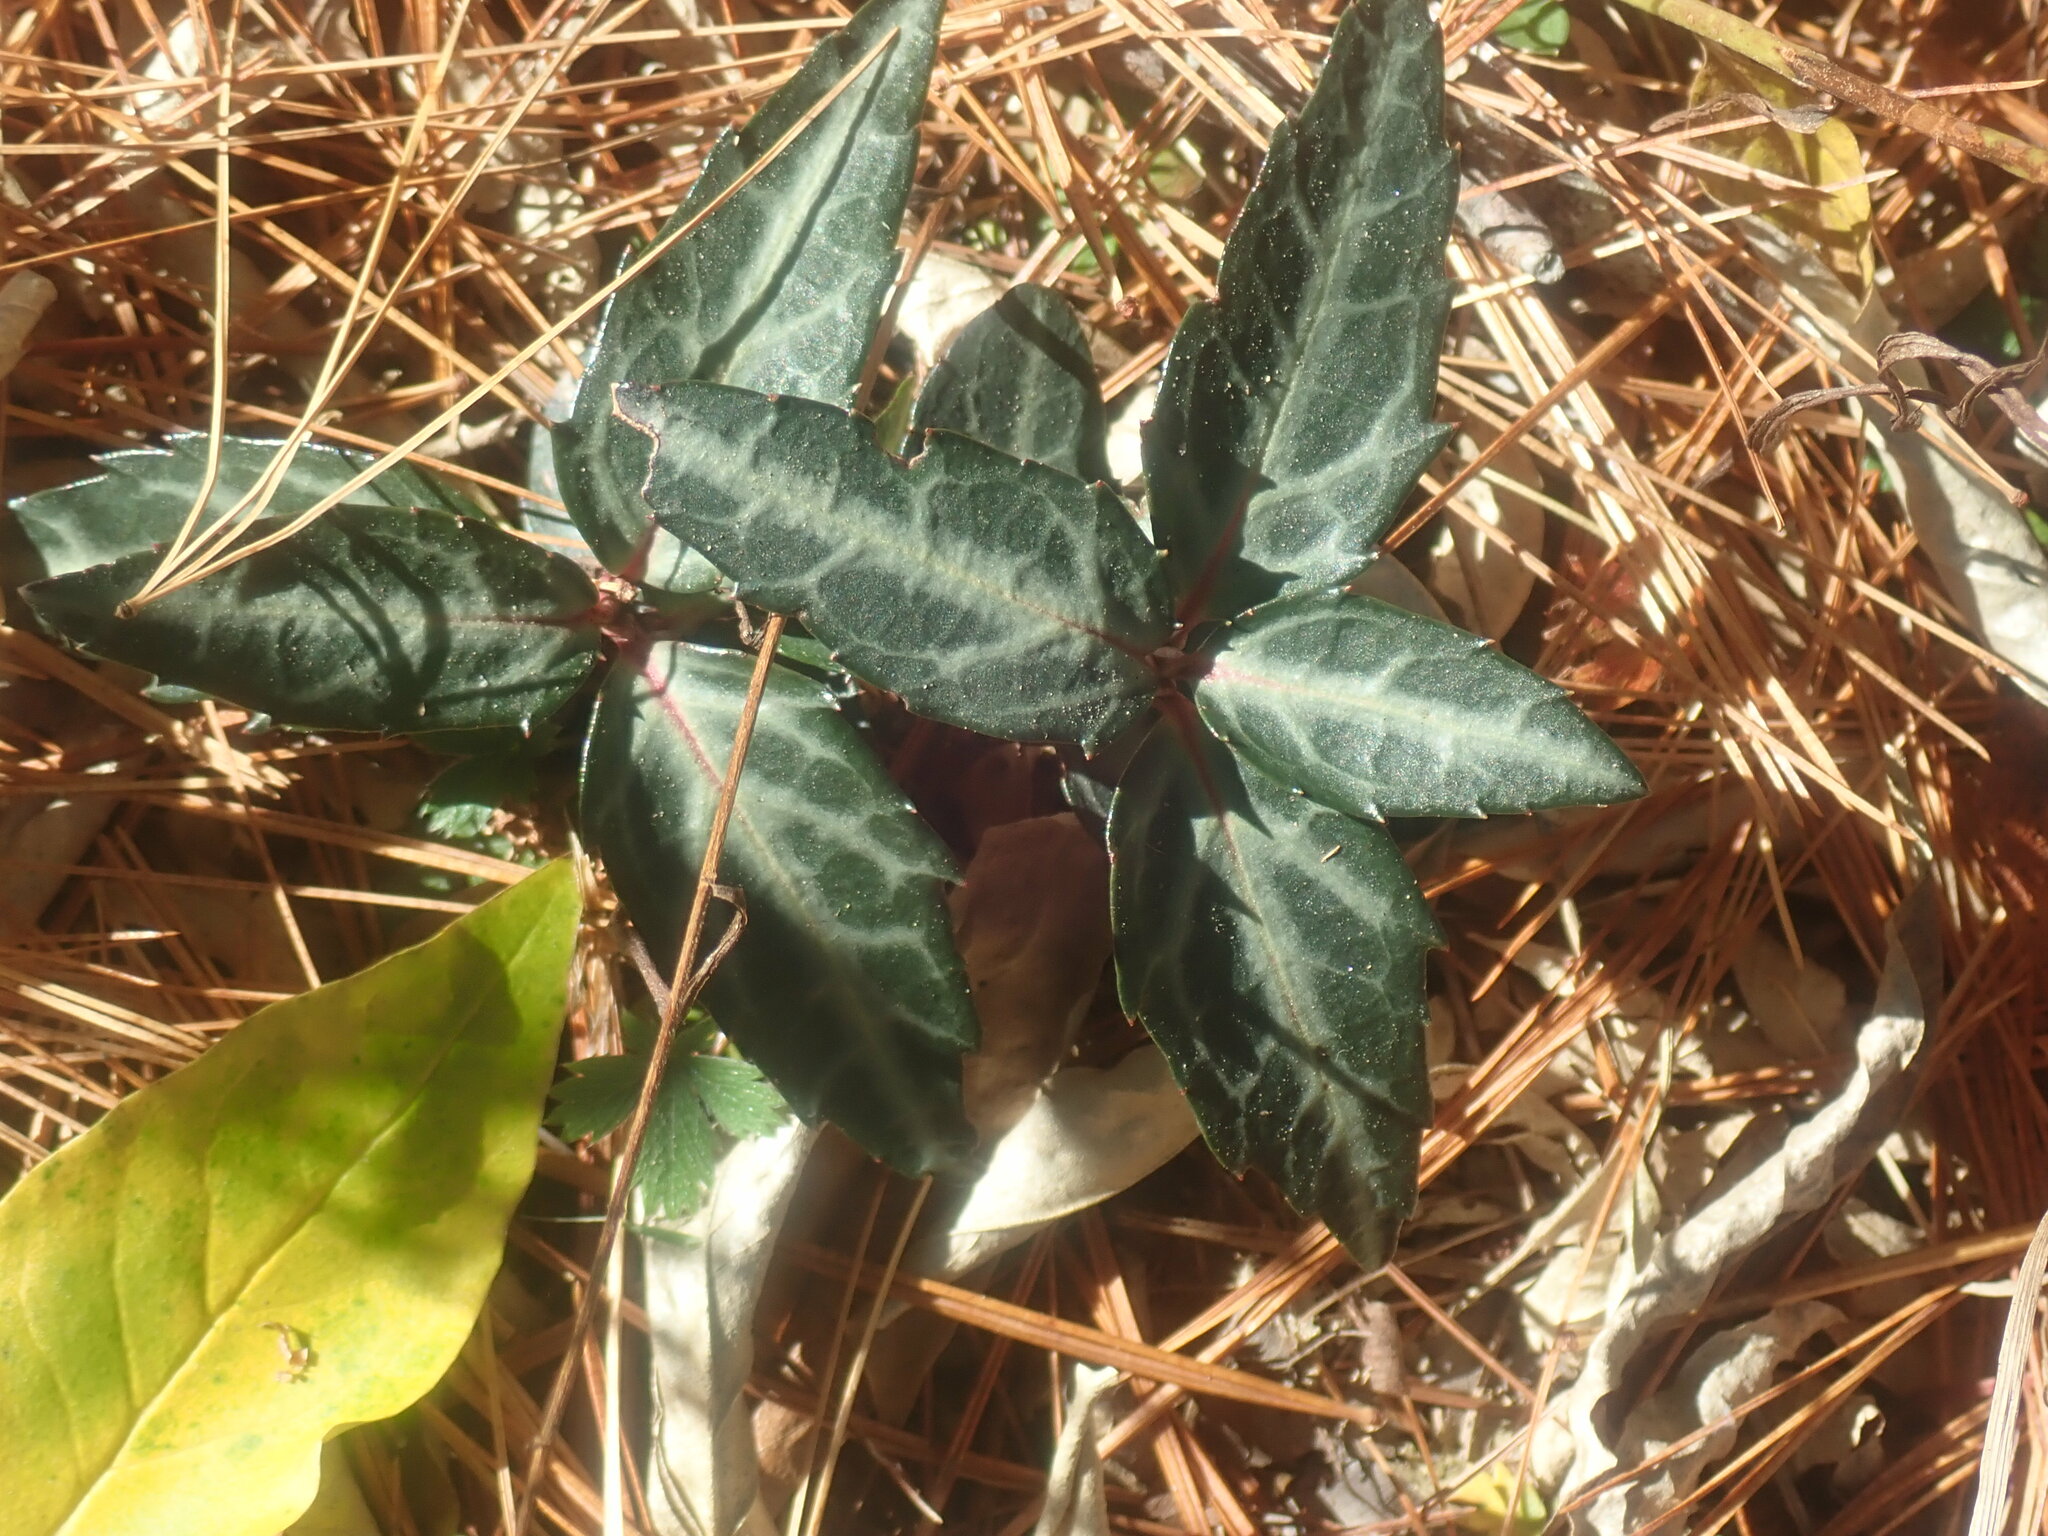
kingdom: Plantae
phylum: Tracheophyta
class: Magnoliopsida
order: Ericales
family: Ericaceae
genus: Chimaphila
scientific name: Chimaphila maculata
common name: Spotted pipsissewa
